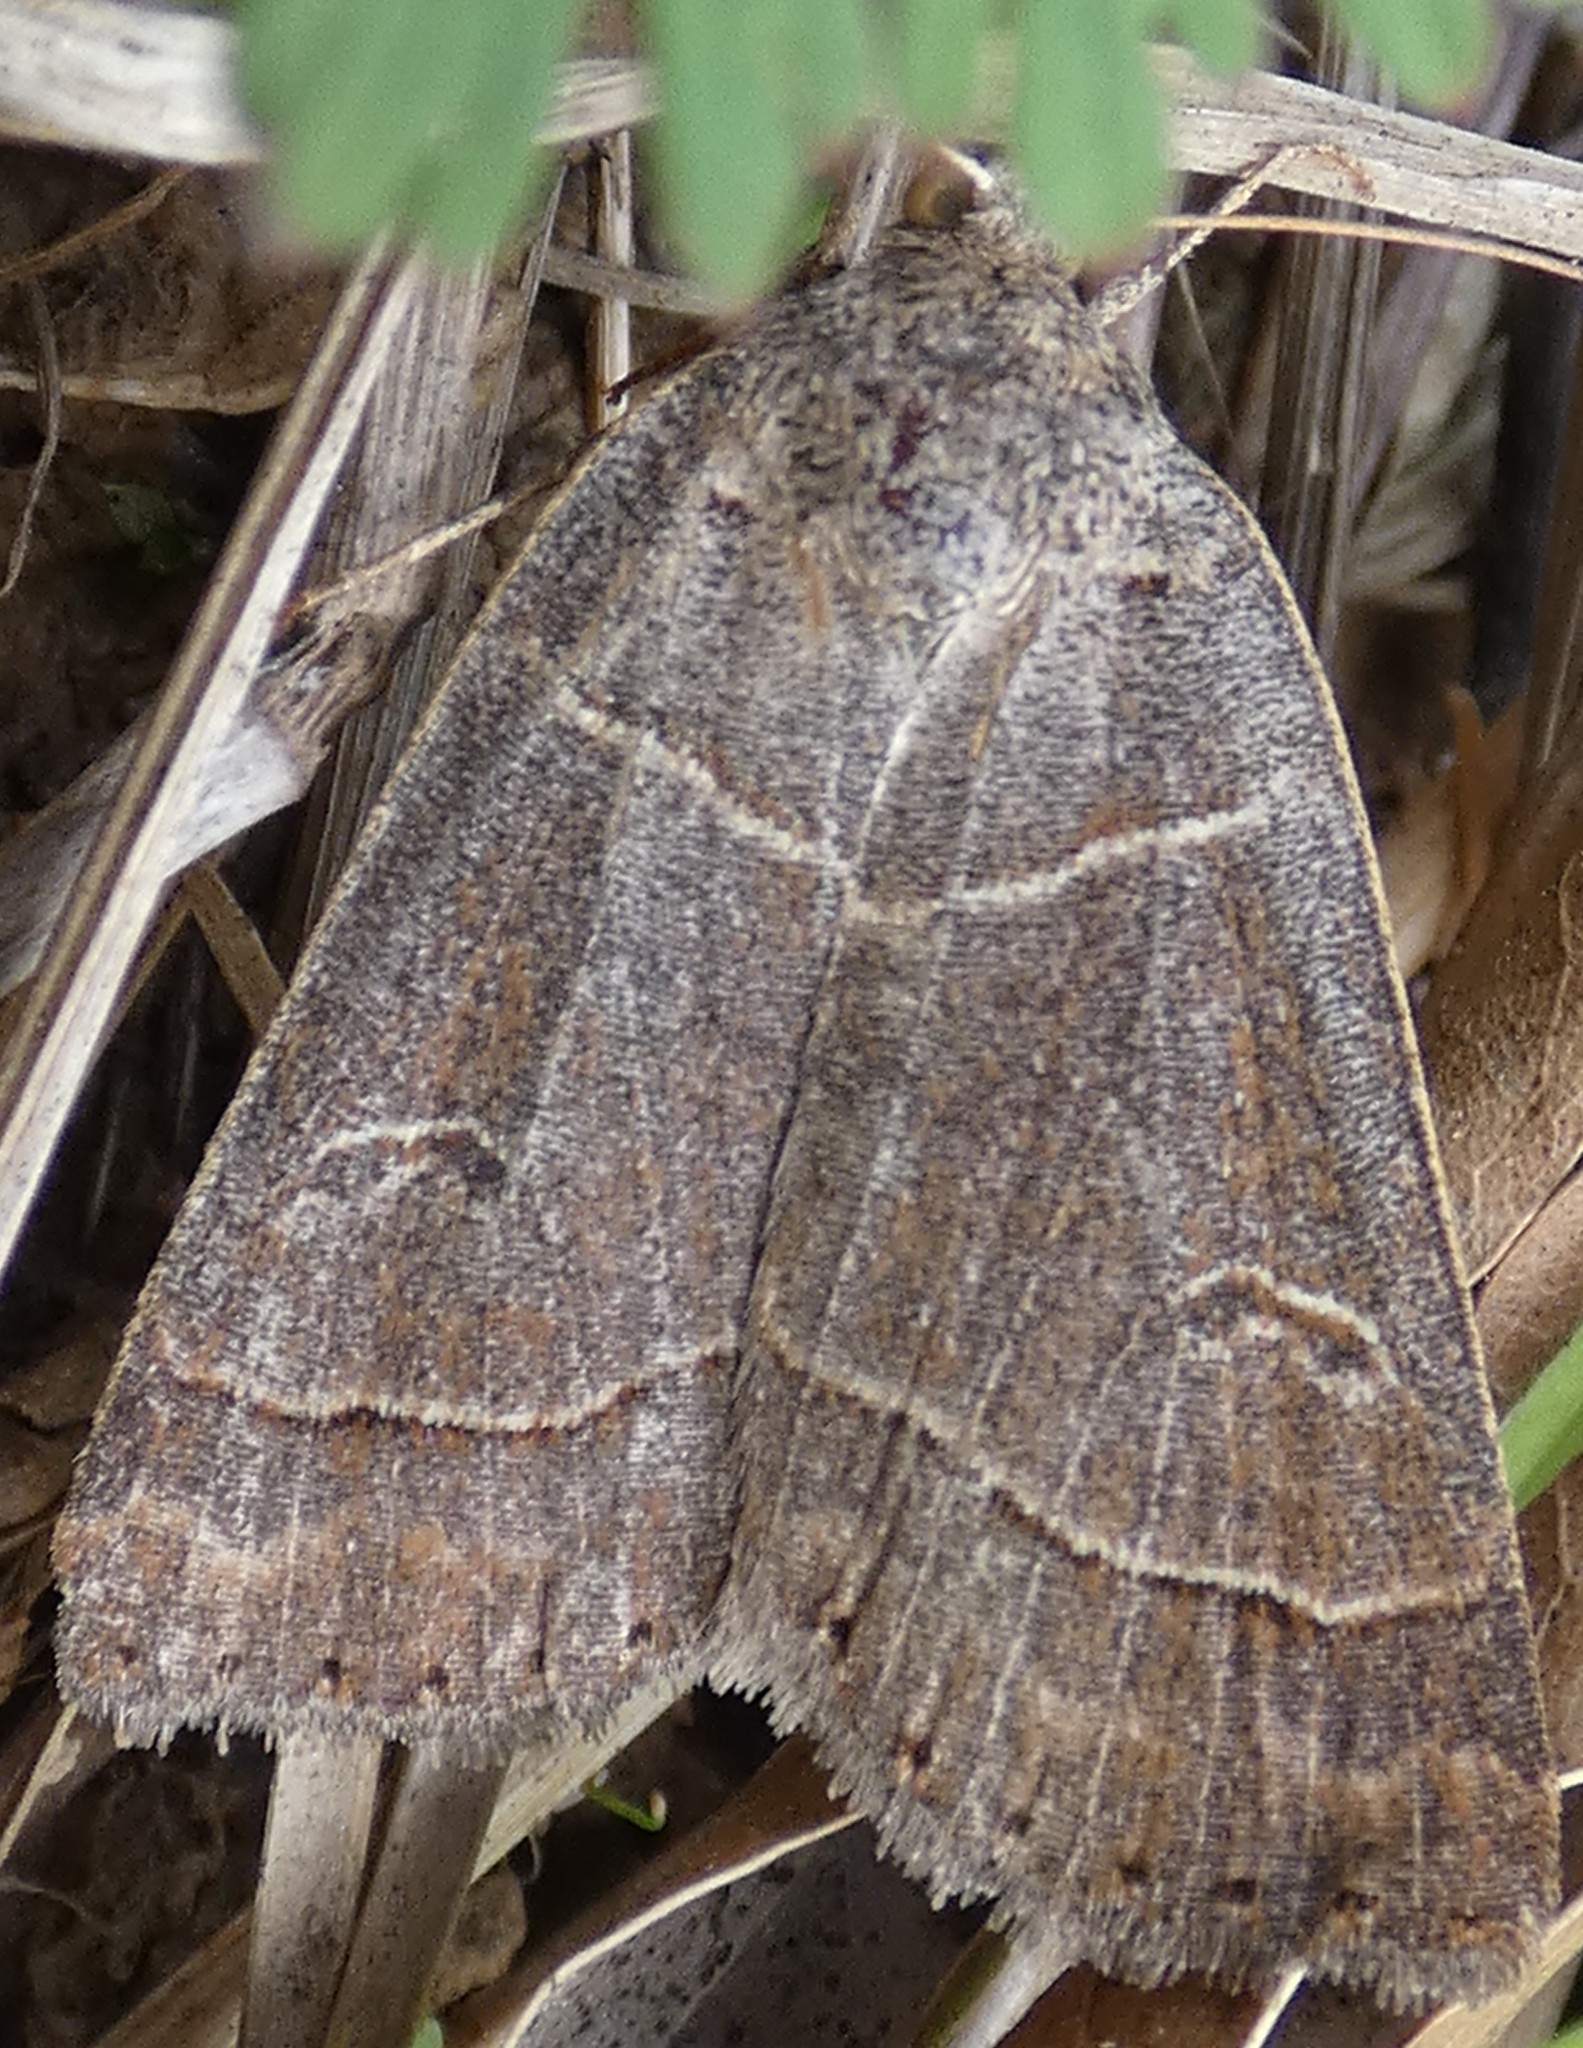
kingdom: Animalia
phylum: Arthropoda
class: Insecta
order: Lepidoptera
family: Erebidae
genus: Phoberia
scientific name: Phoberia atomaris
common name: Common oak moth
